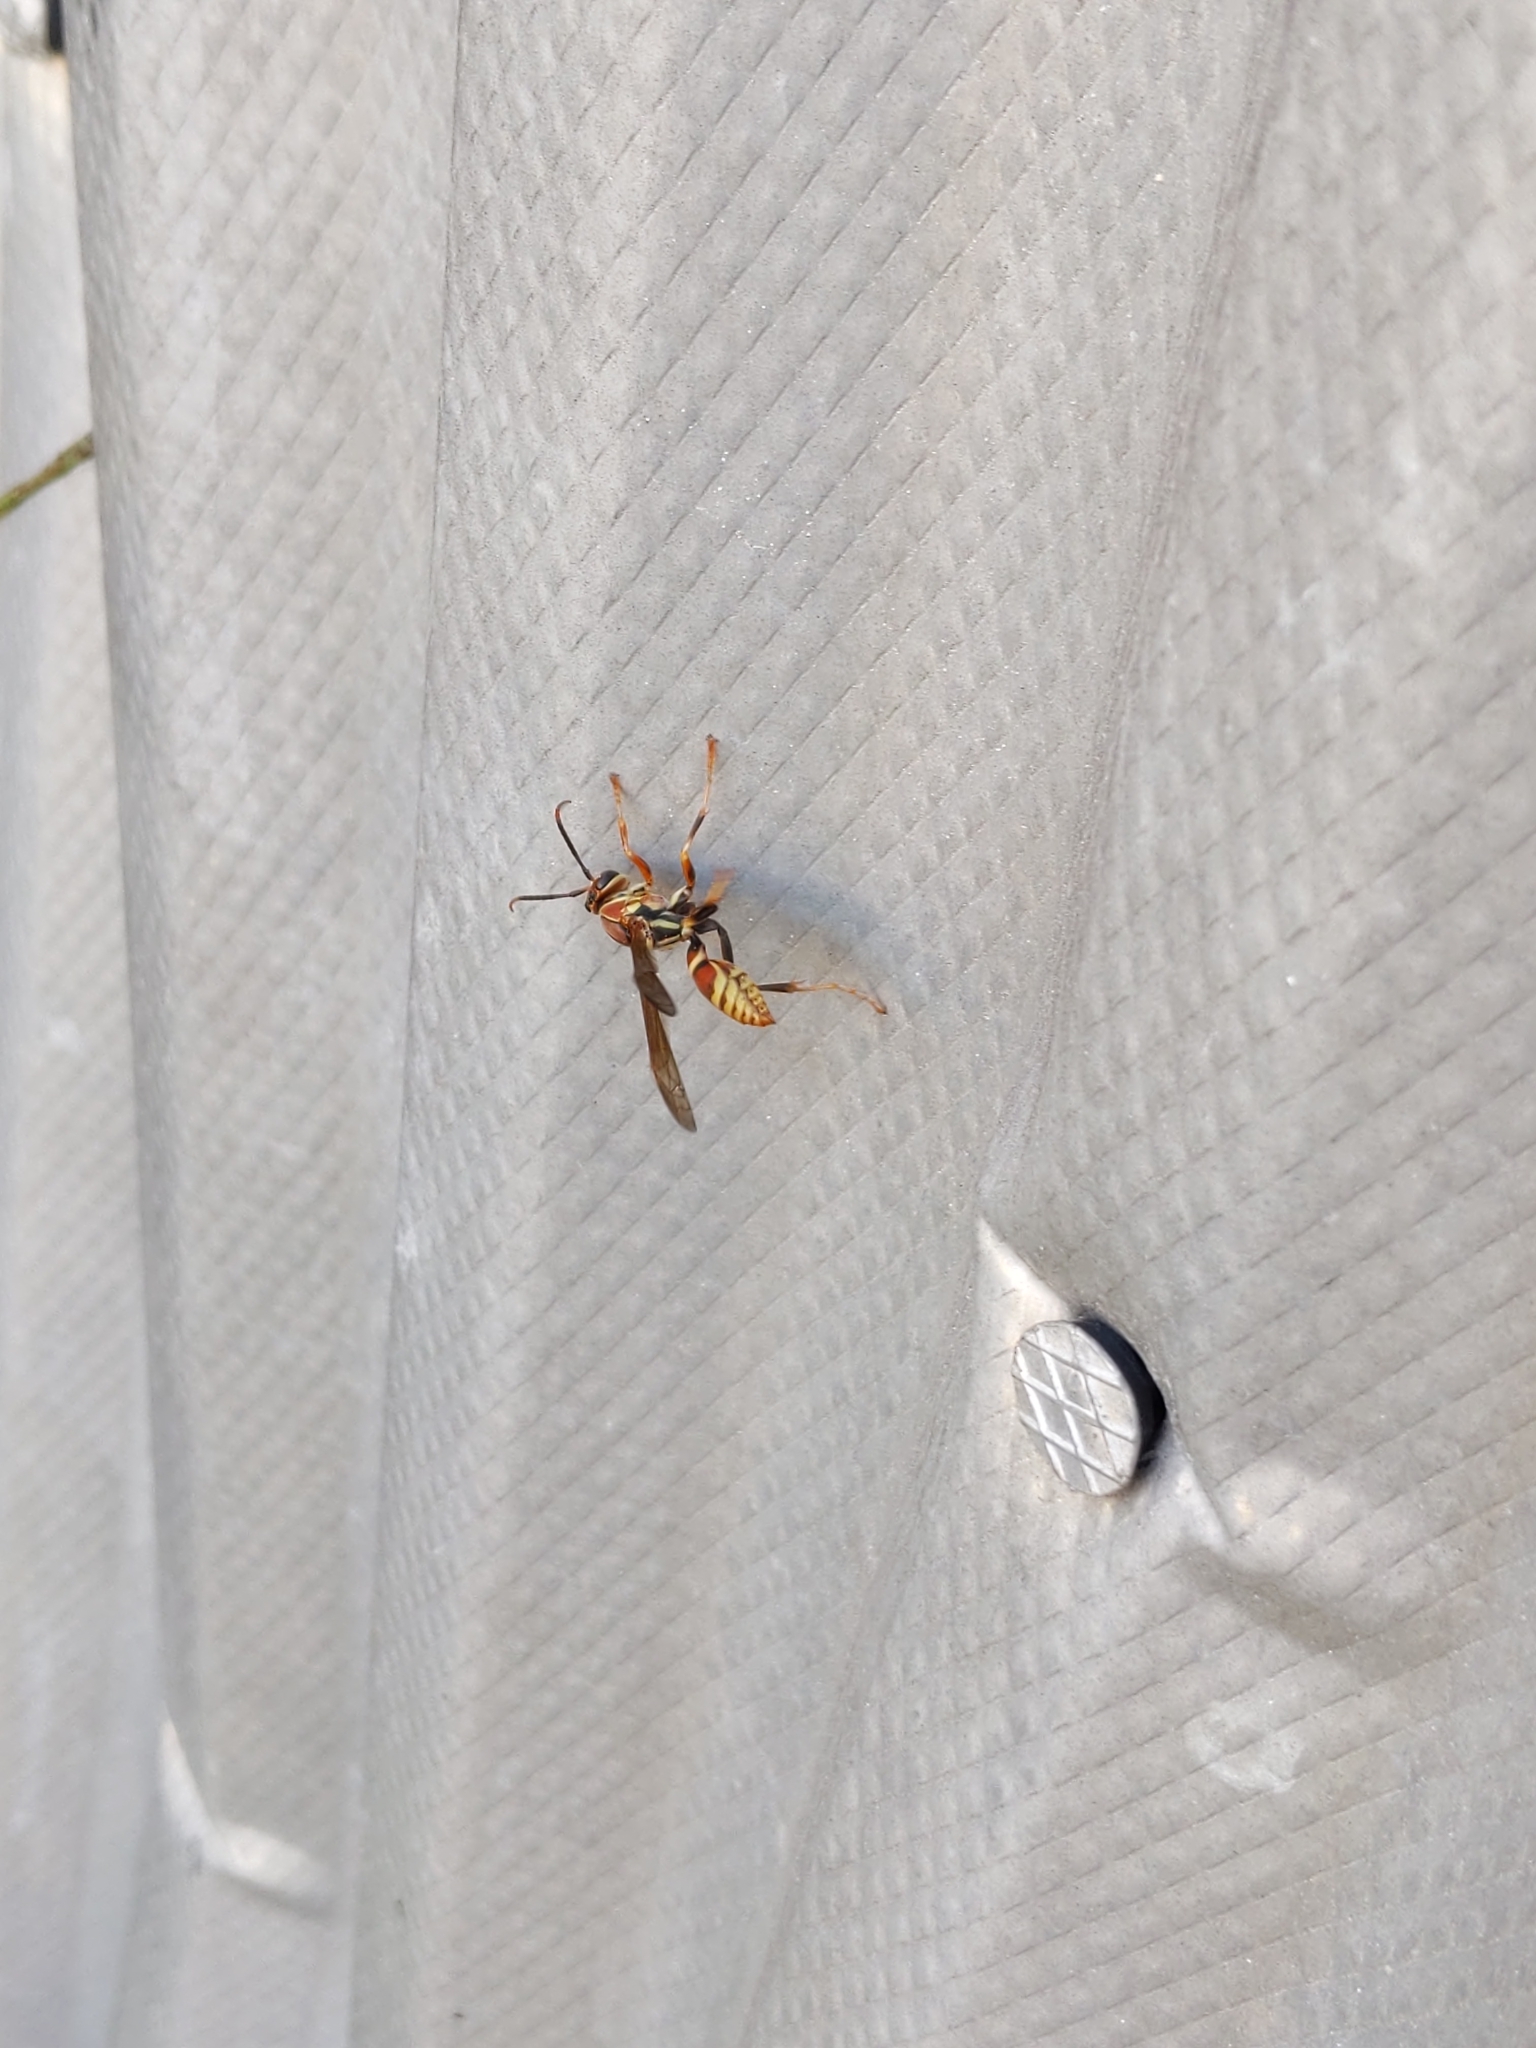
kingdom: Animalia
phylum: Arthropoda
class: Insecta
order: Hymenoptera
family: Eumenidae
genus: Polistes
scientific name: Polistes exclamans
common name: Paper wasp
